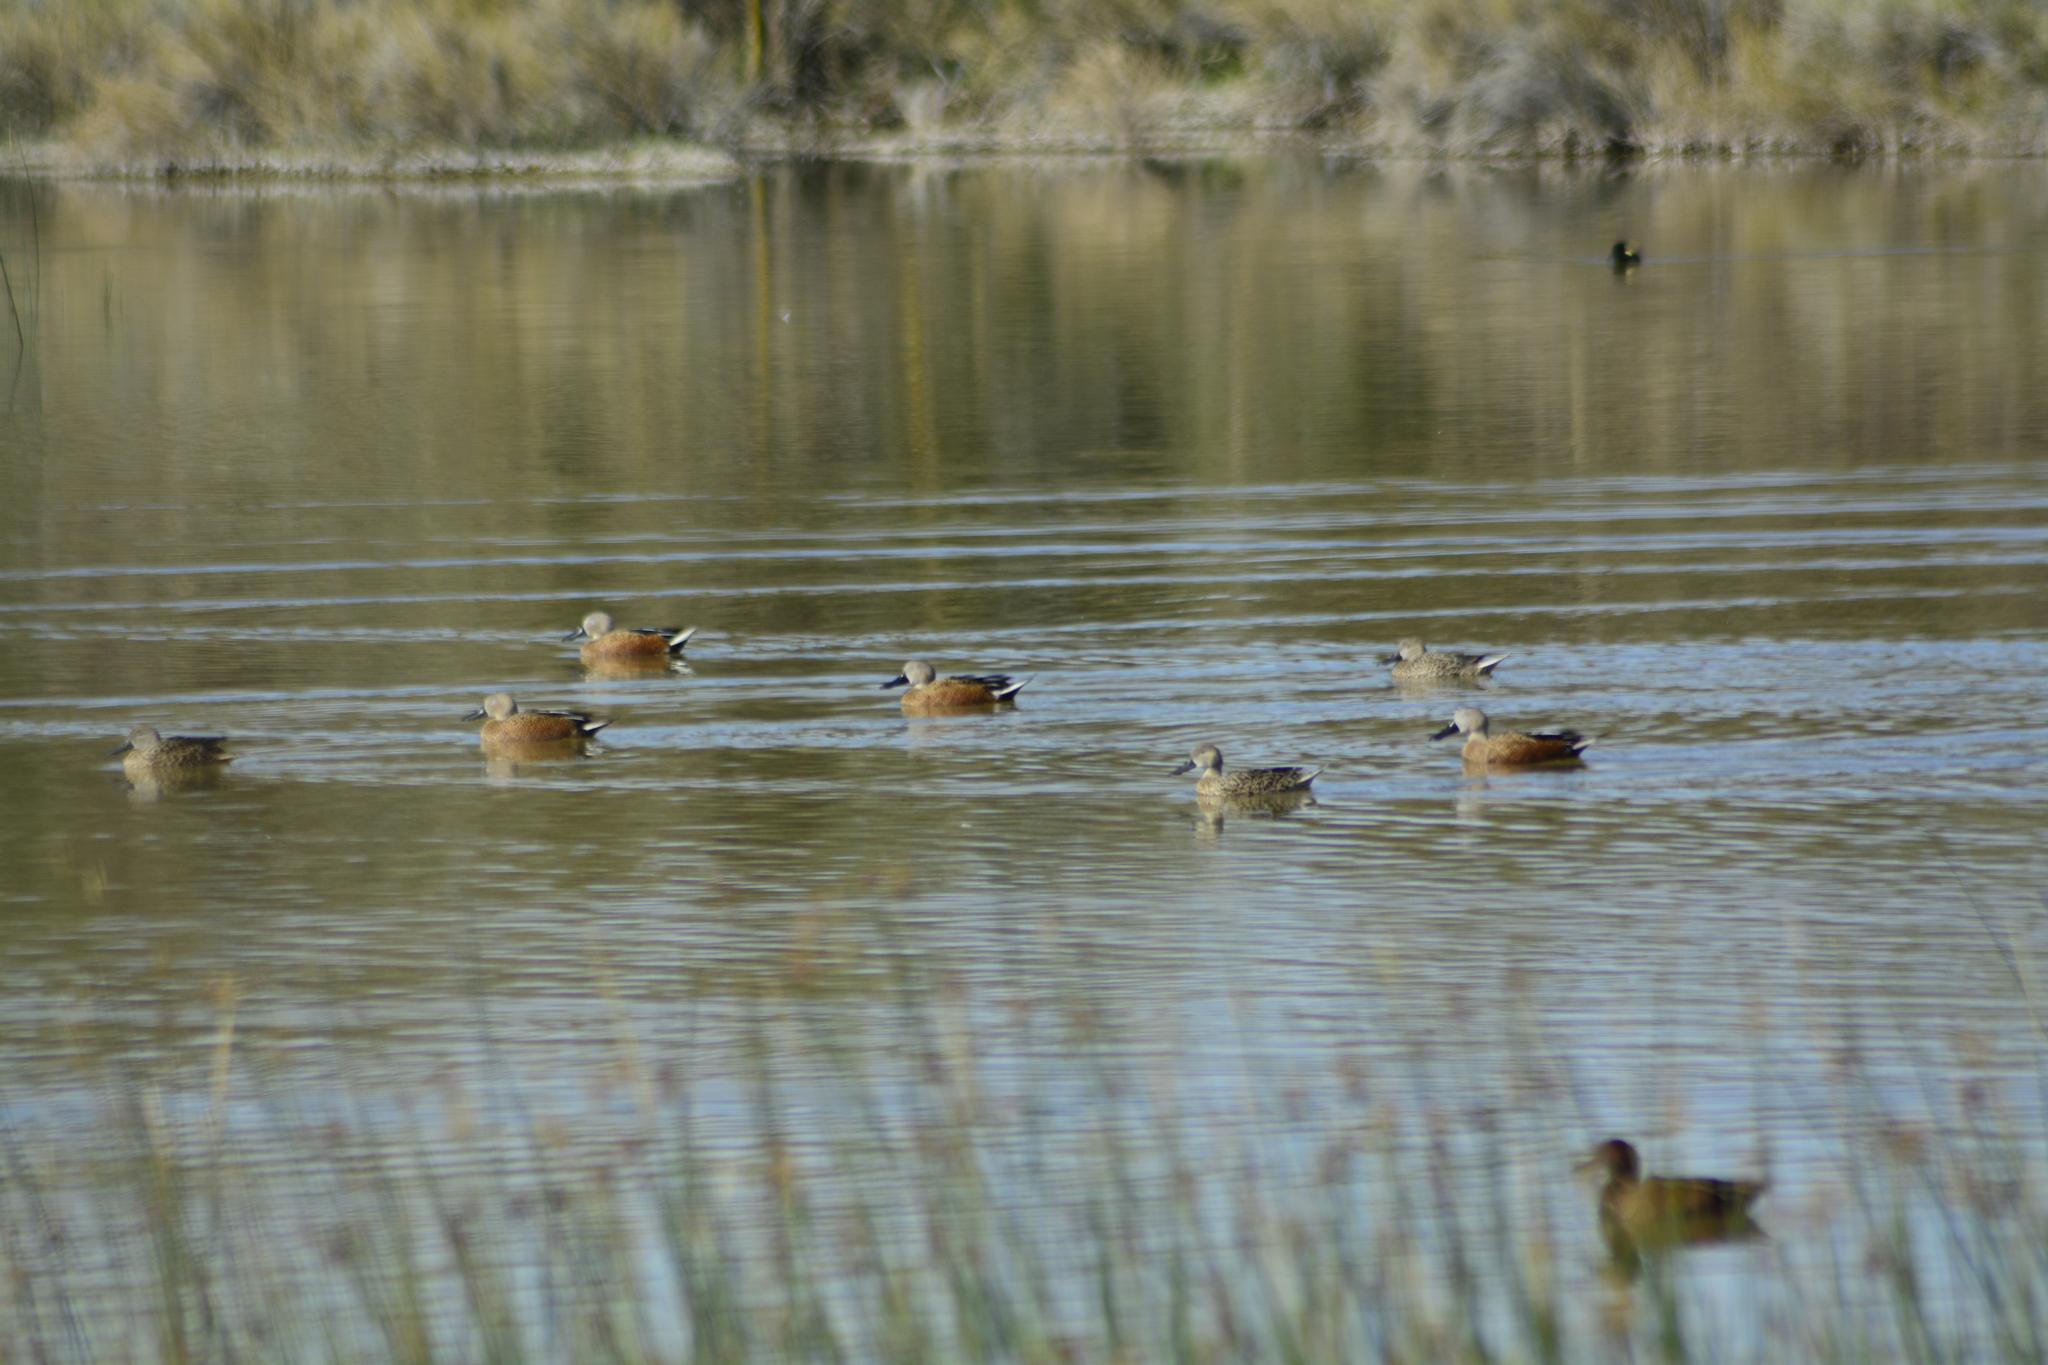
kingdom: Animalia
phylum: Chordata
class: Aves
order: Anseriformes
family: Anatidae
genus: Spatula
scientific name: Spatula platalea
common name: Red shoveler
